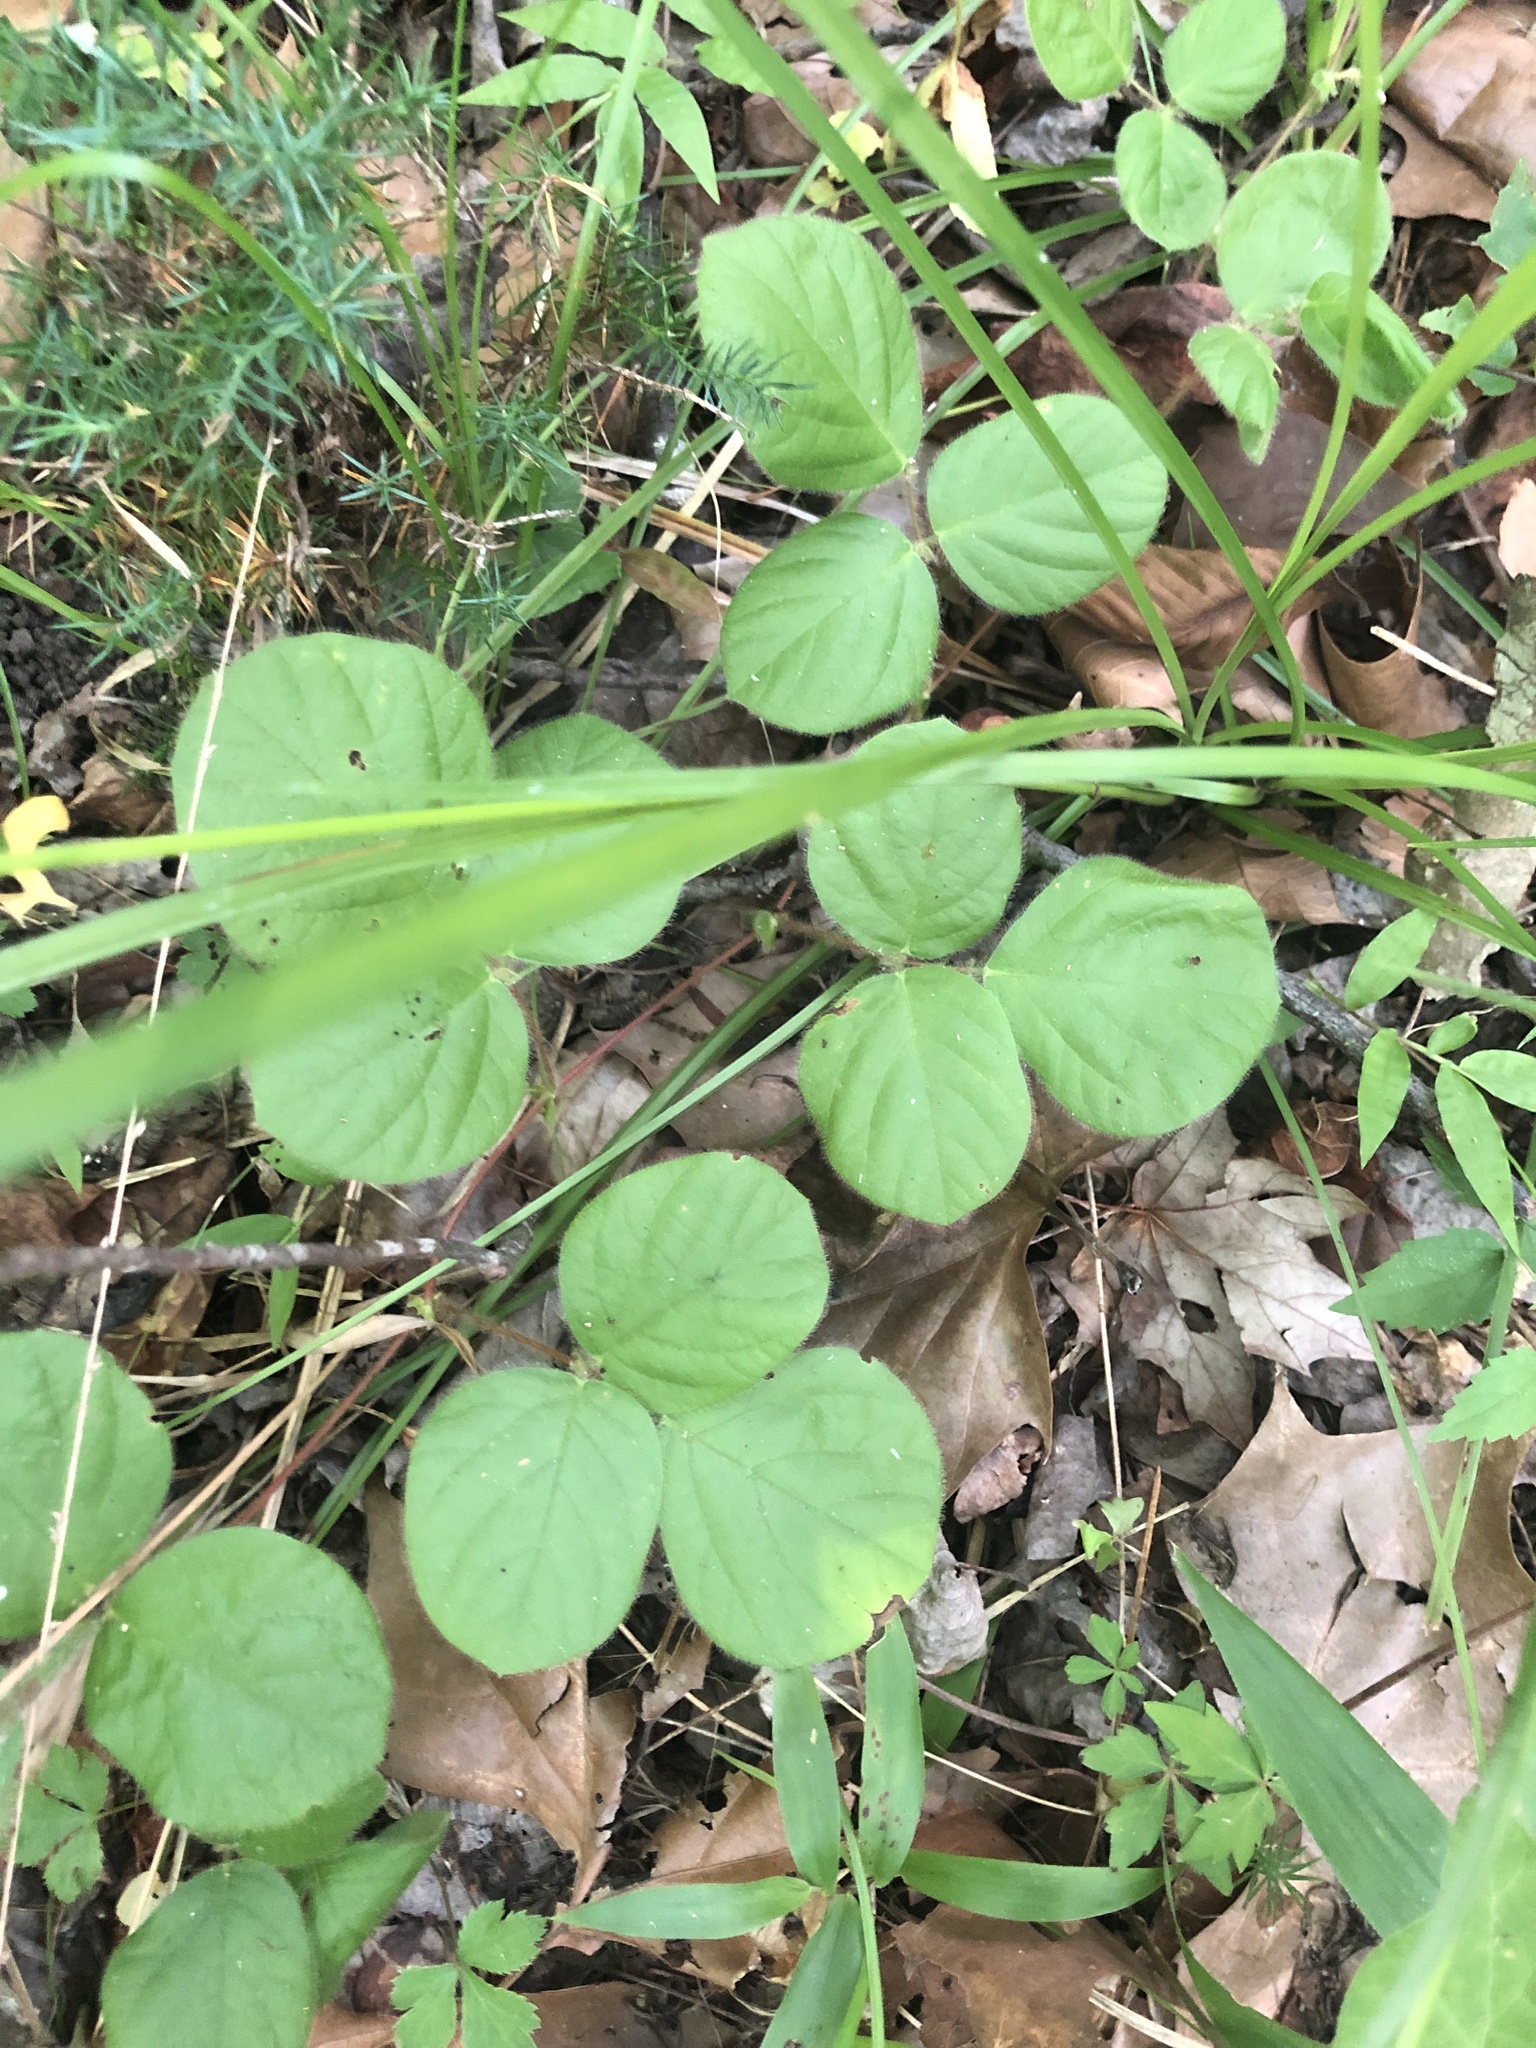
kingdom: Plantae
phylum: Tracheophyta
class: Magnoliopsida
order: Fabales
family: Fabaceae
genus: Desmodium
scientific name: Desmodium rotundifolium
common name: Dollarleaf
